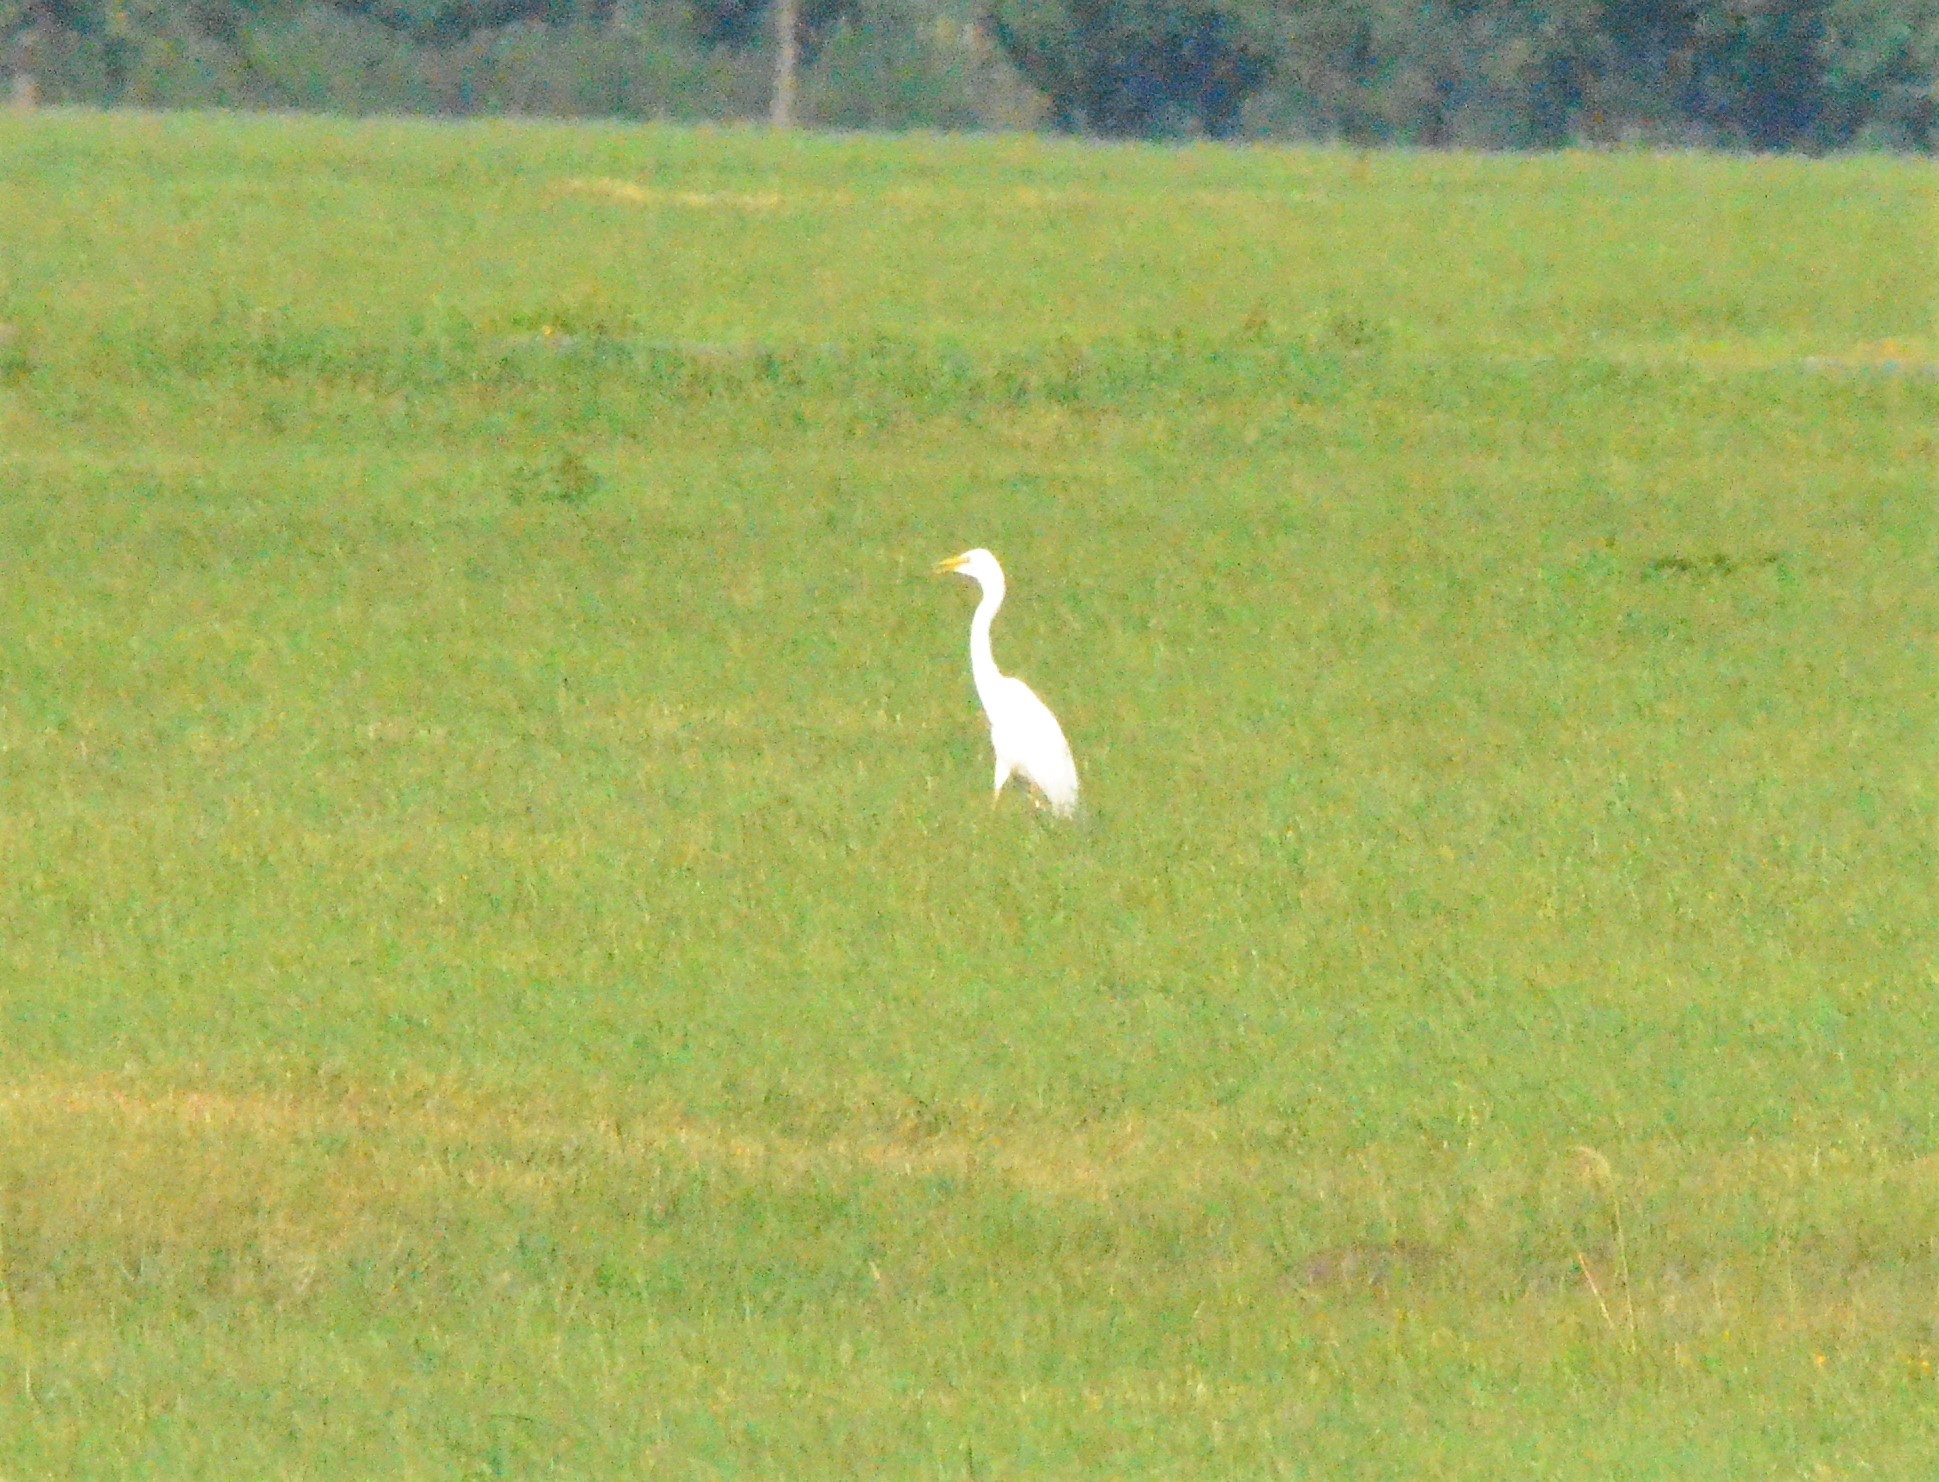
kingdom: Animalia
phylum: Chordata
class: Aves
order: Pelecaniformes
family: Ardeidae
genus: Ardea
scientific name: Ardea alba
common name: Great egret
